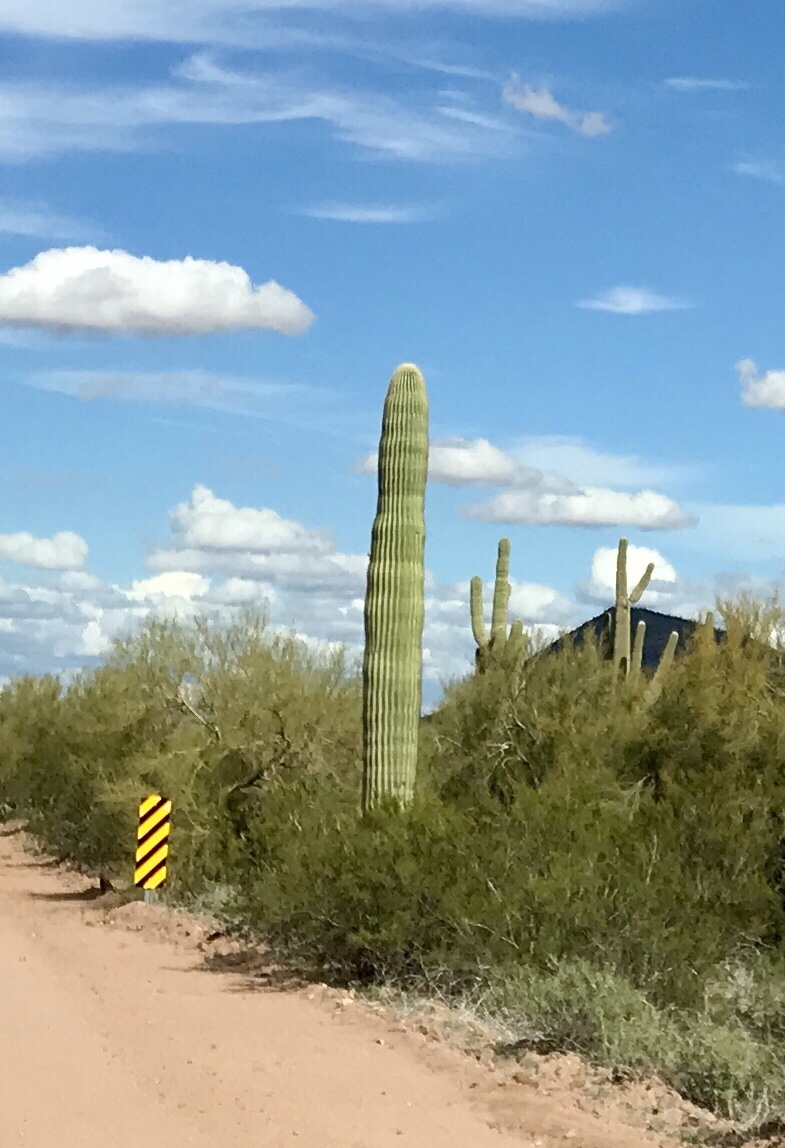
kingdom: Plantae
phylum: Tracheophyta
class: Magnoliopsida
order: Caryophyllales
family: Cactaceae
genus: Carnegiea
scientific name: Carnegiea gigantea
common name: Saguaro
